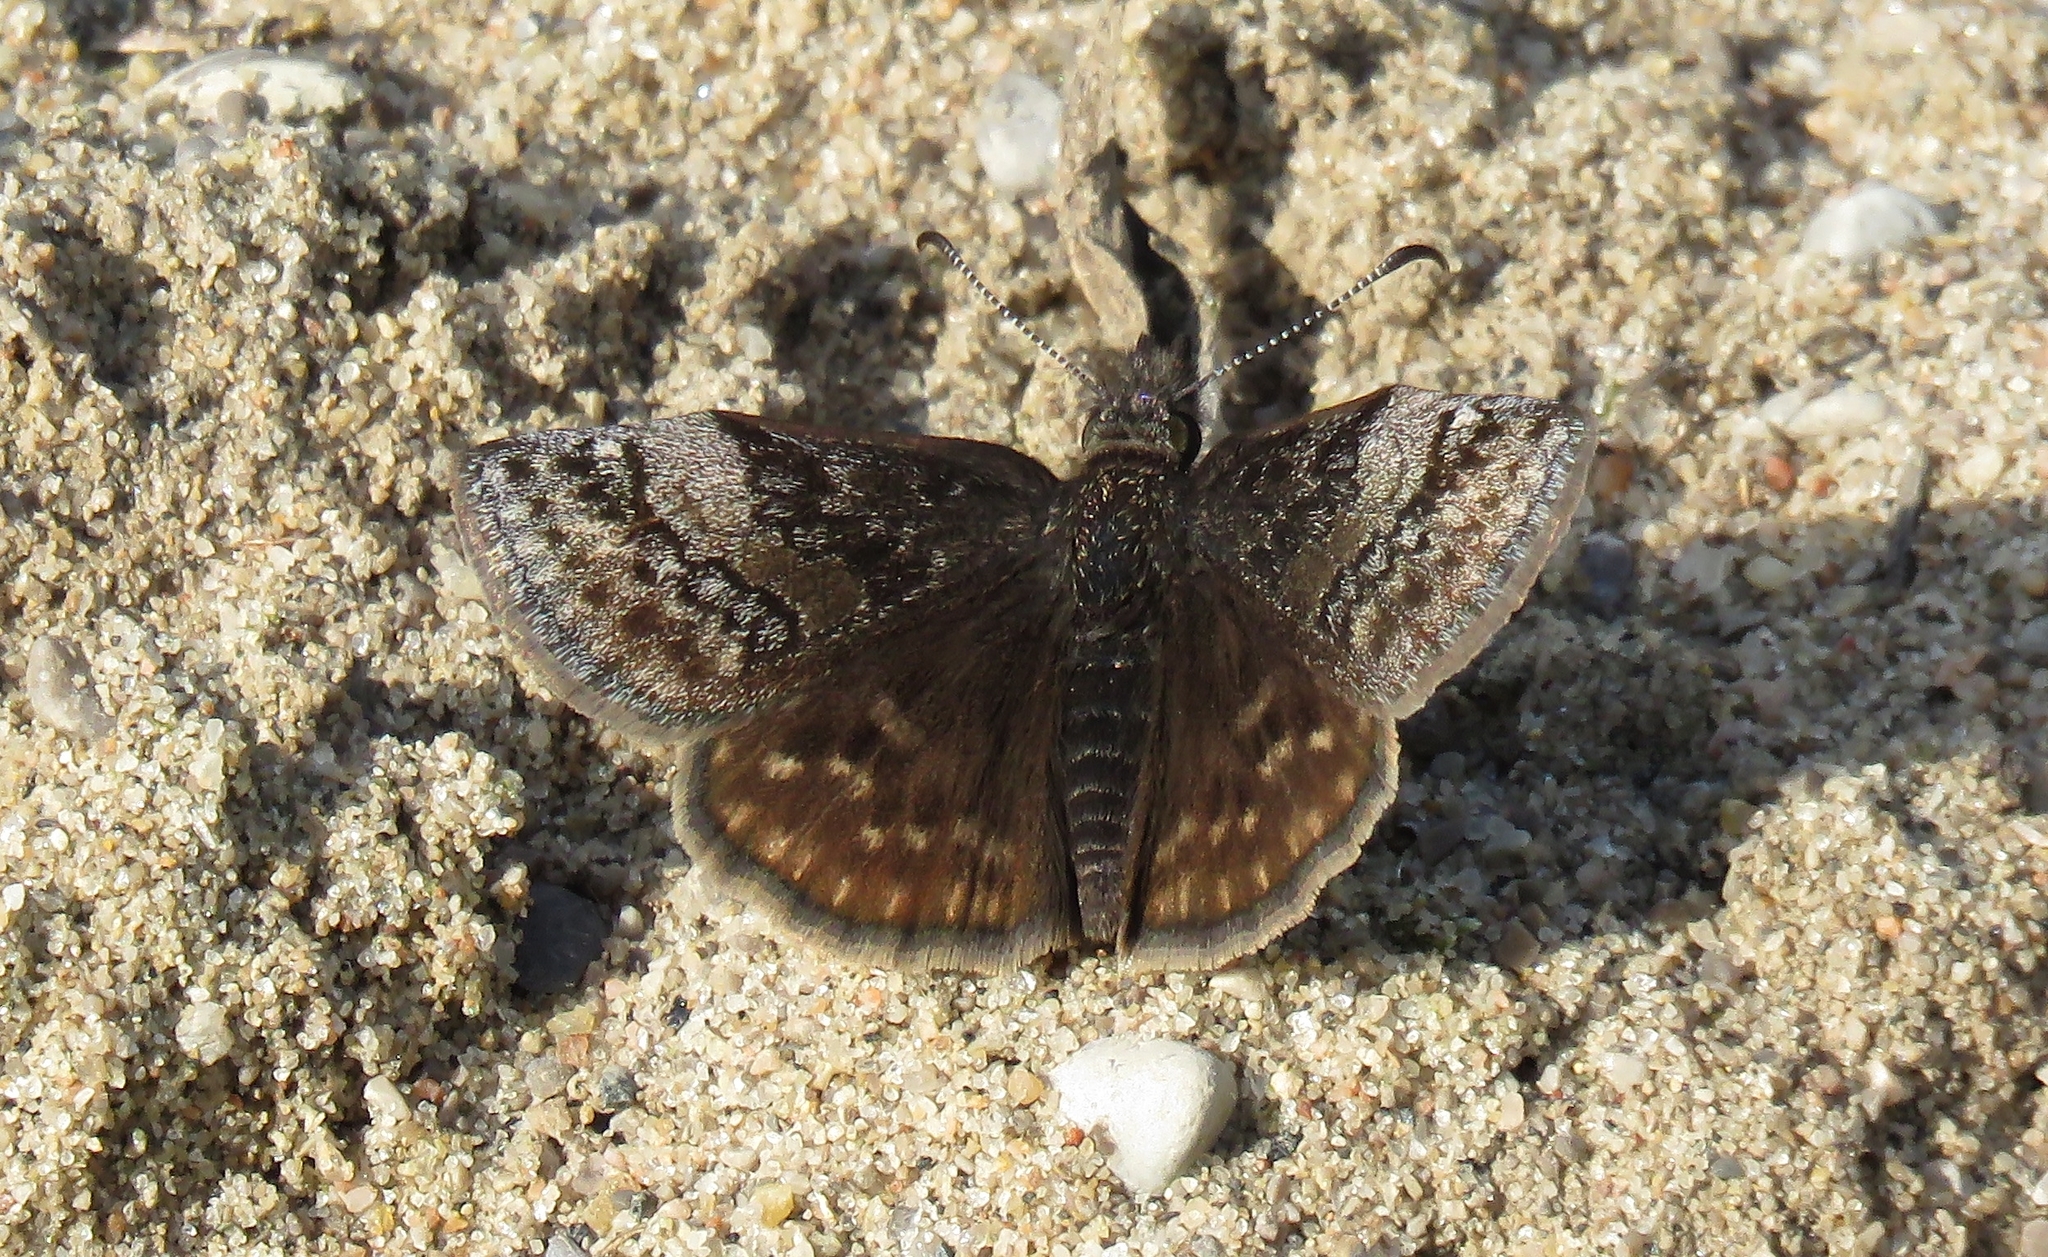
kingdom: Animalia
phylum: Arthropoda
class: Insecta
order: Lepidoptera
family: Hesperiidae
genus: Erynnis
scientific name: Erynnis icelus
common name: Dreamy duskywing
